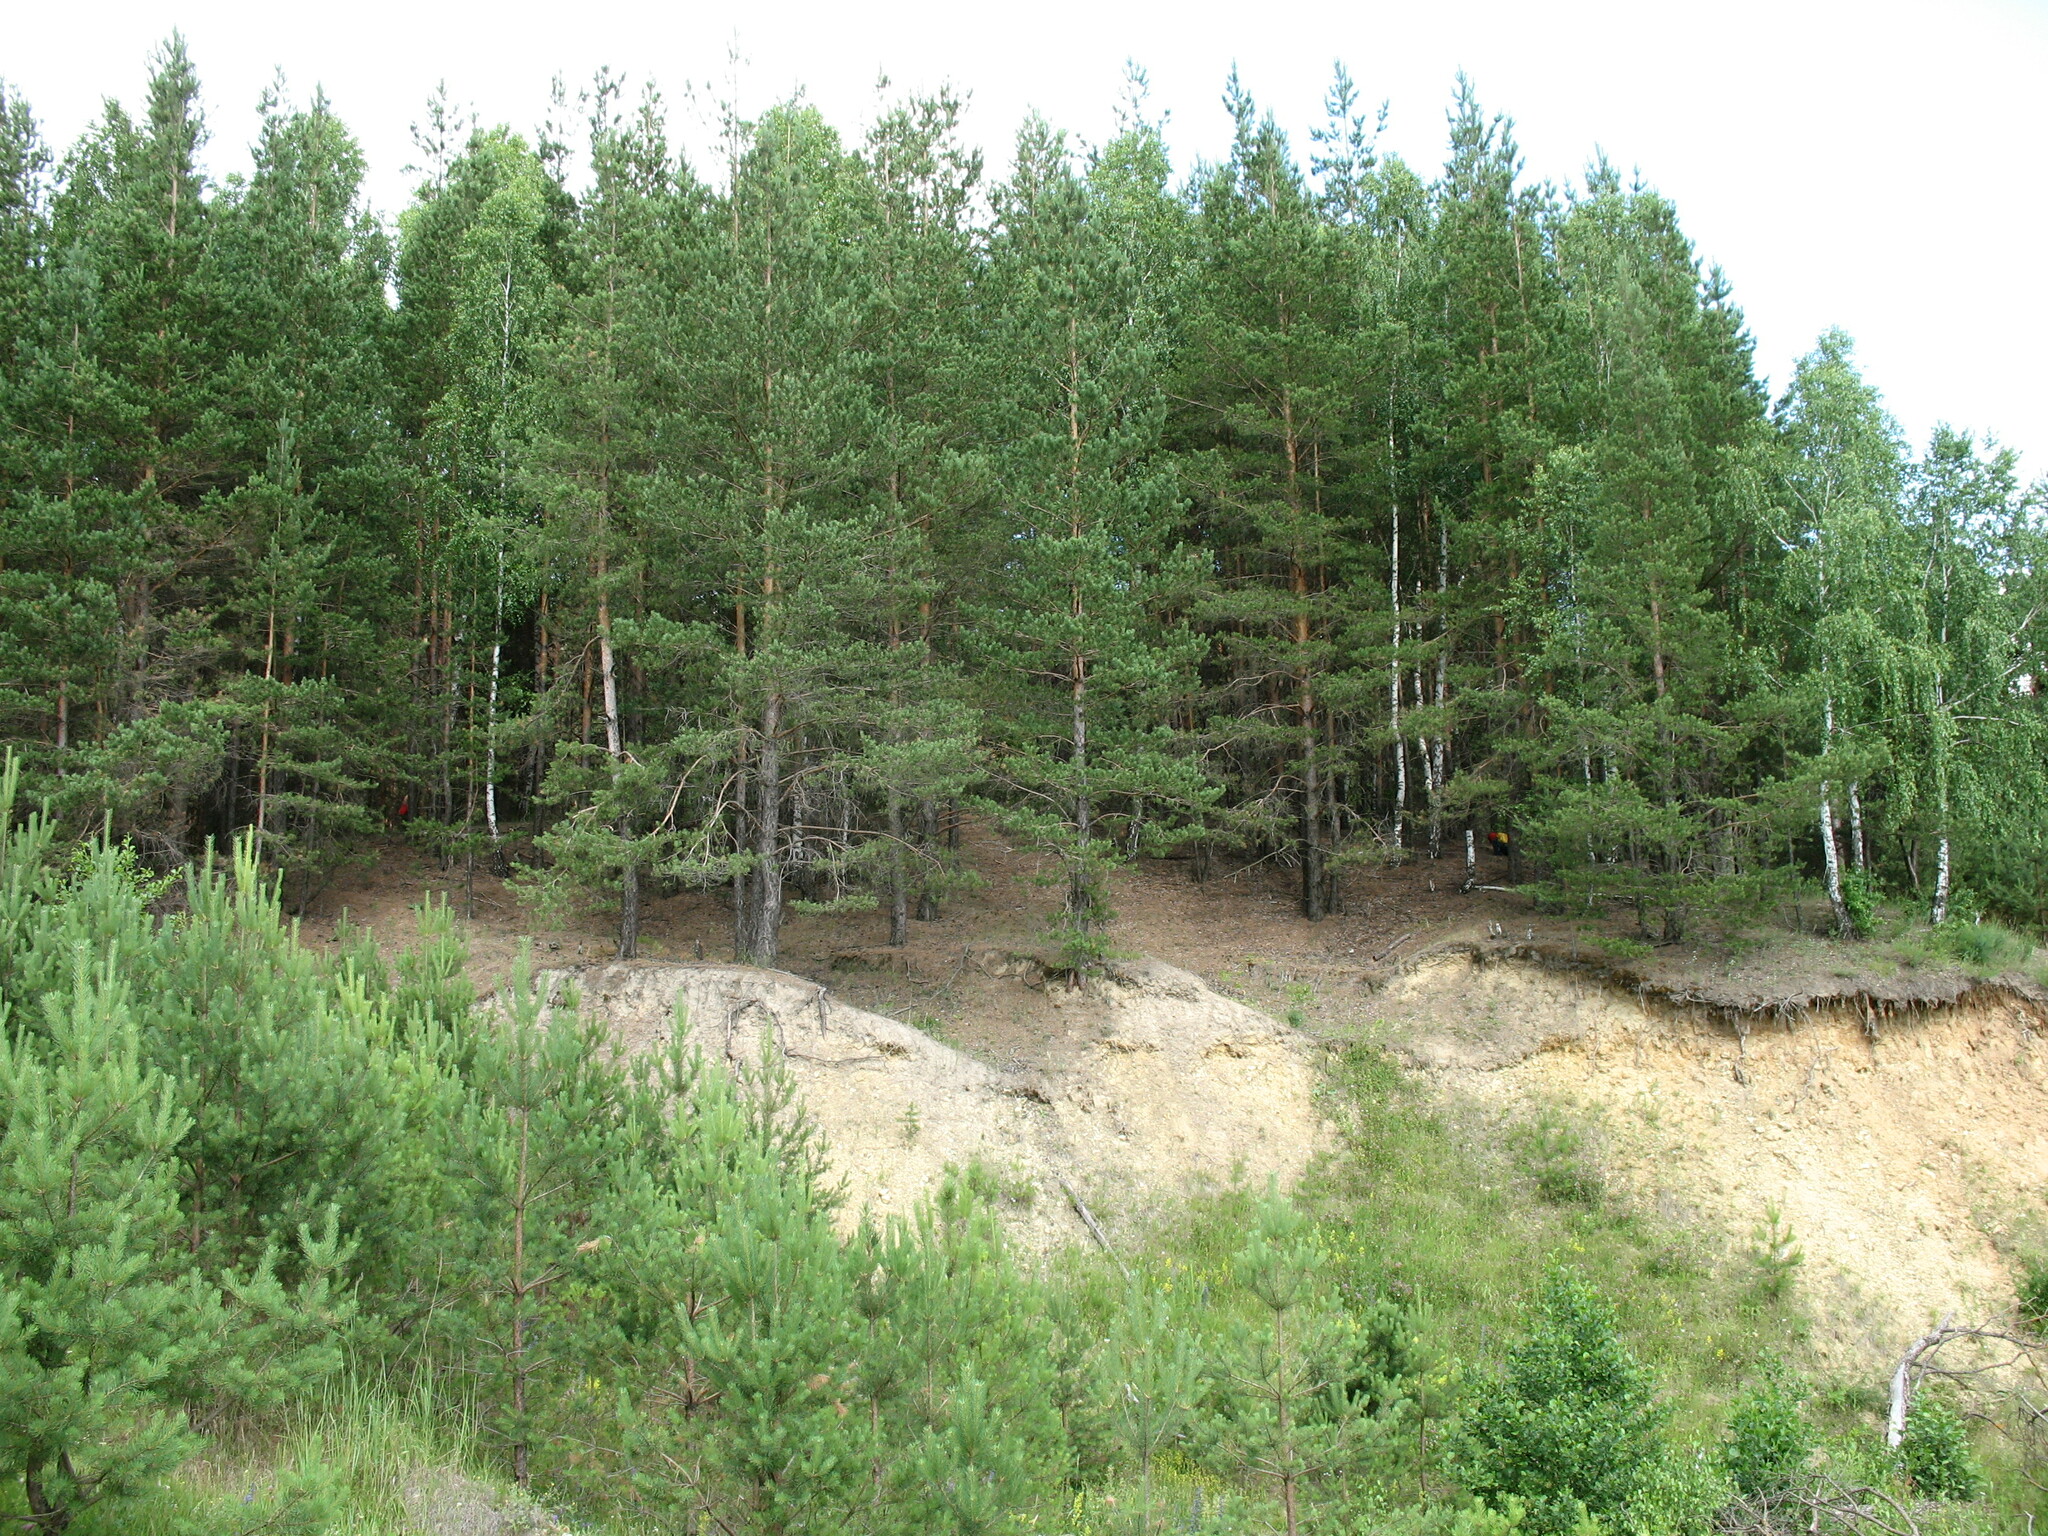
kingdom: Plantae
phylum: Tracheophyta
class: Magnoliopsida
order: Saxifragales
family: Crassulaceae
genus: Sempervivum
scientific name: Sempervivum globiferum
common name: Rolling hen-and-chicks
